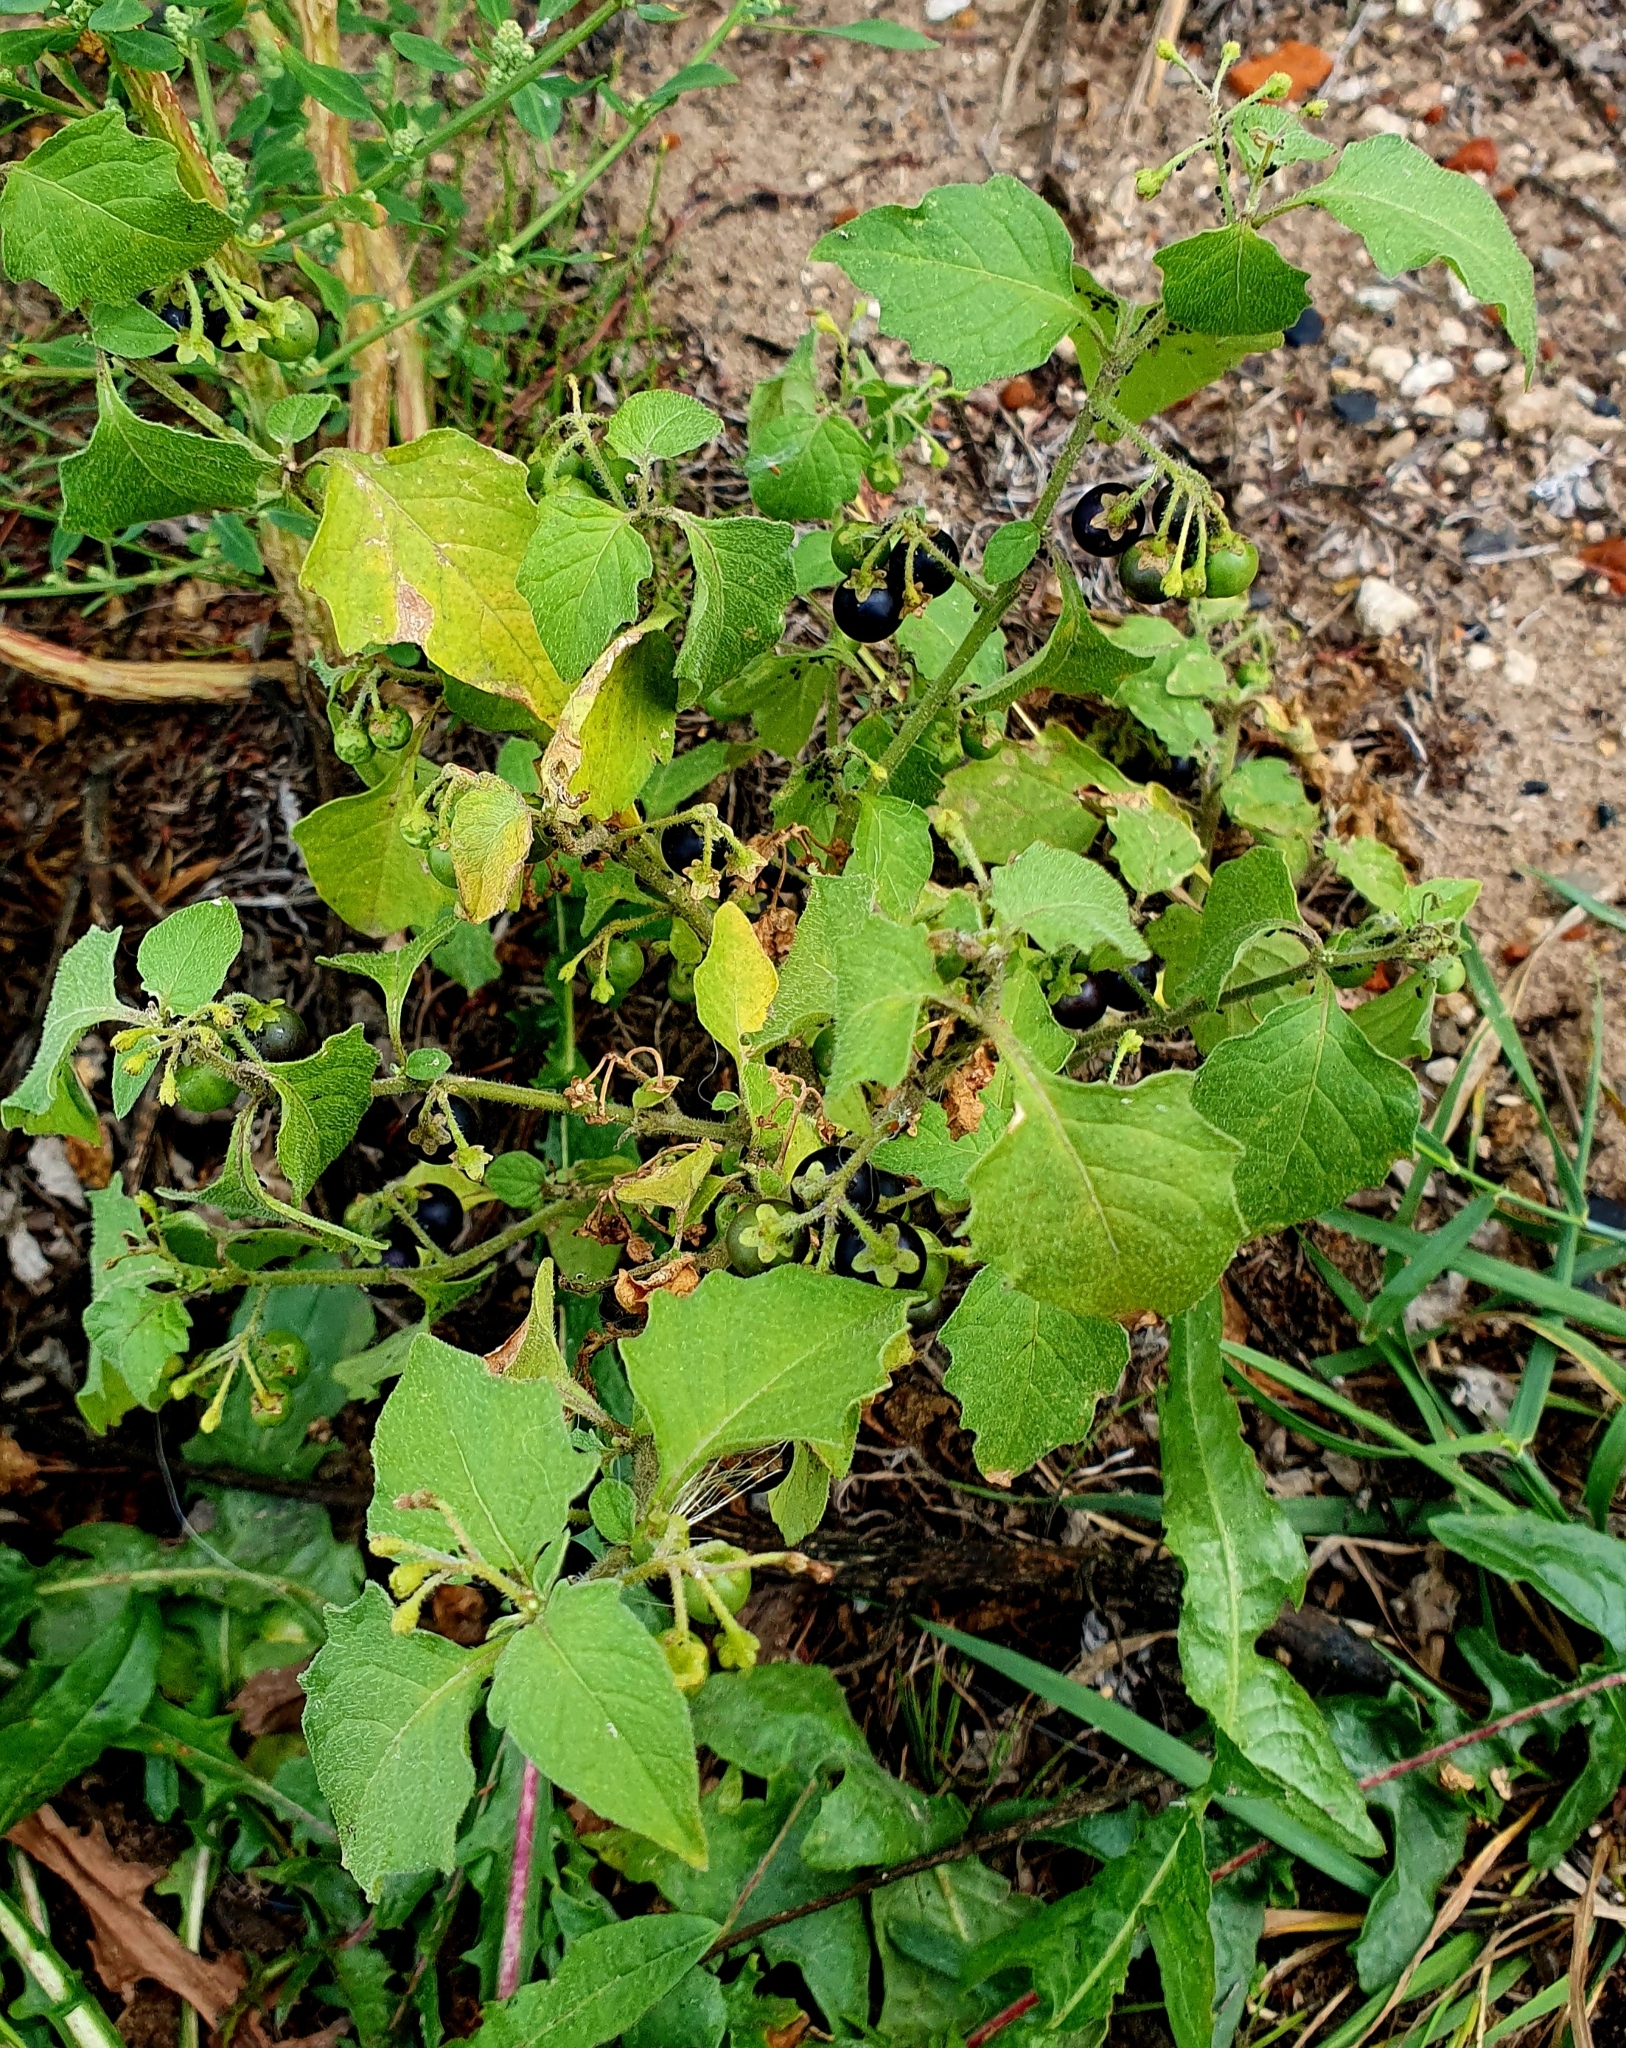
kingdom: Plantae
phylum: Tracheophyta
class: Magnoliopsida
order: Solanales
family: Solanaceae
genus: Solanum
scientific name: Solanum nigrum
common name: Black nightshade
